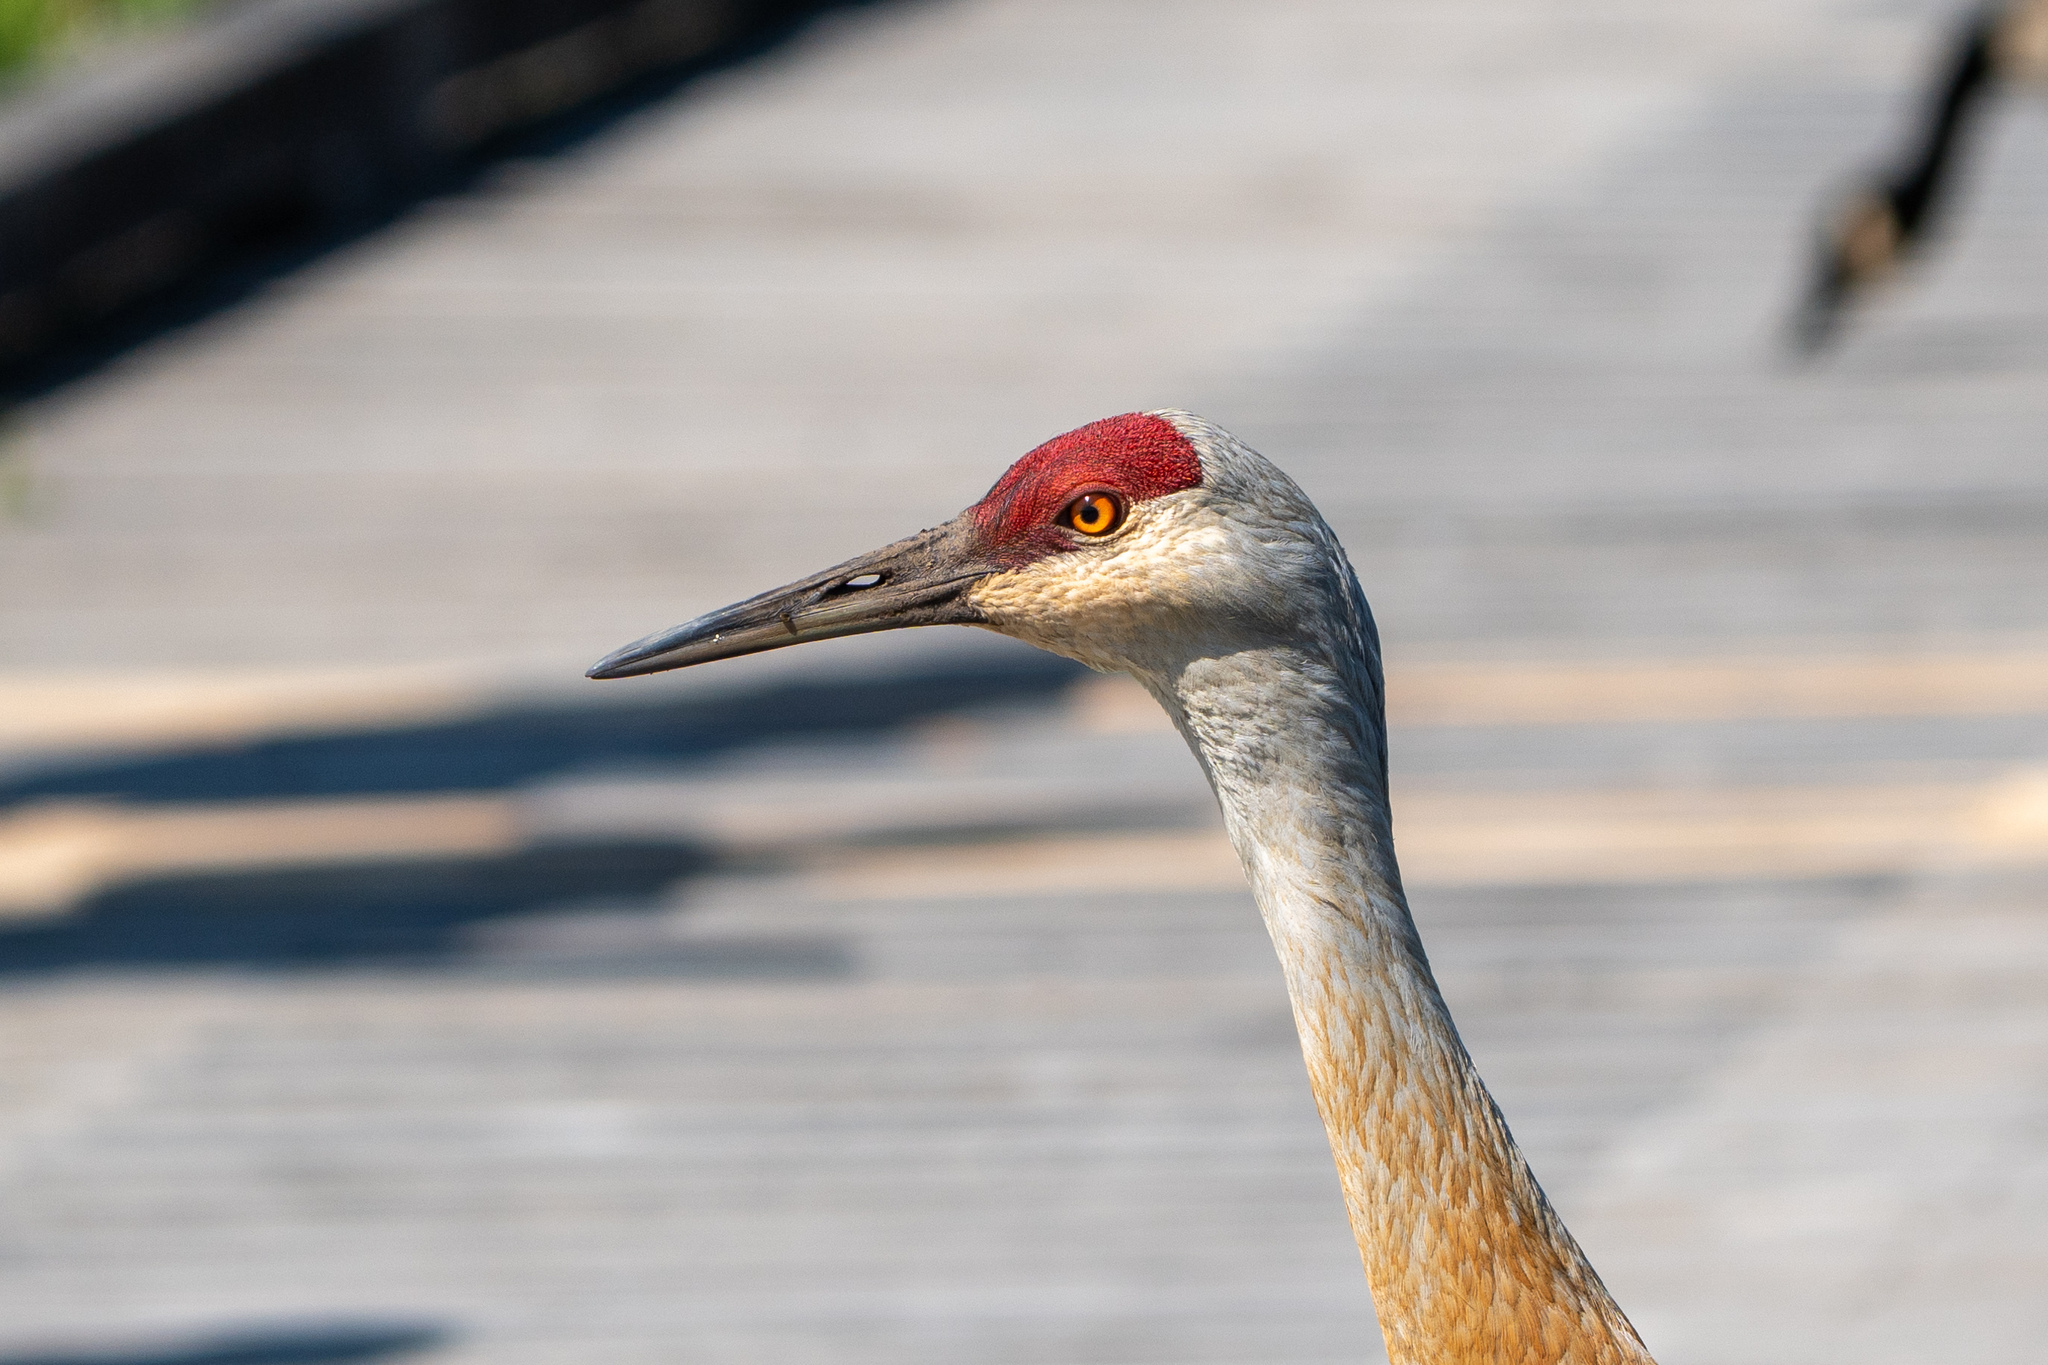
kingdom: Animalia
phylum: Chordata
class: Aves
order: Gruiformes
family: Gruidae
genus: Grus
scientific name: Grus canadensis
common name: Sandhill crane
